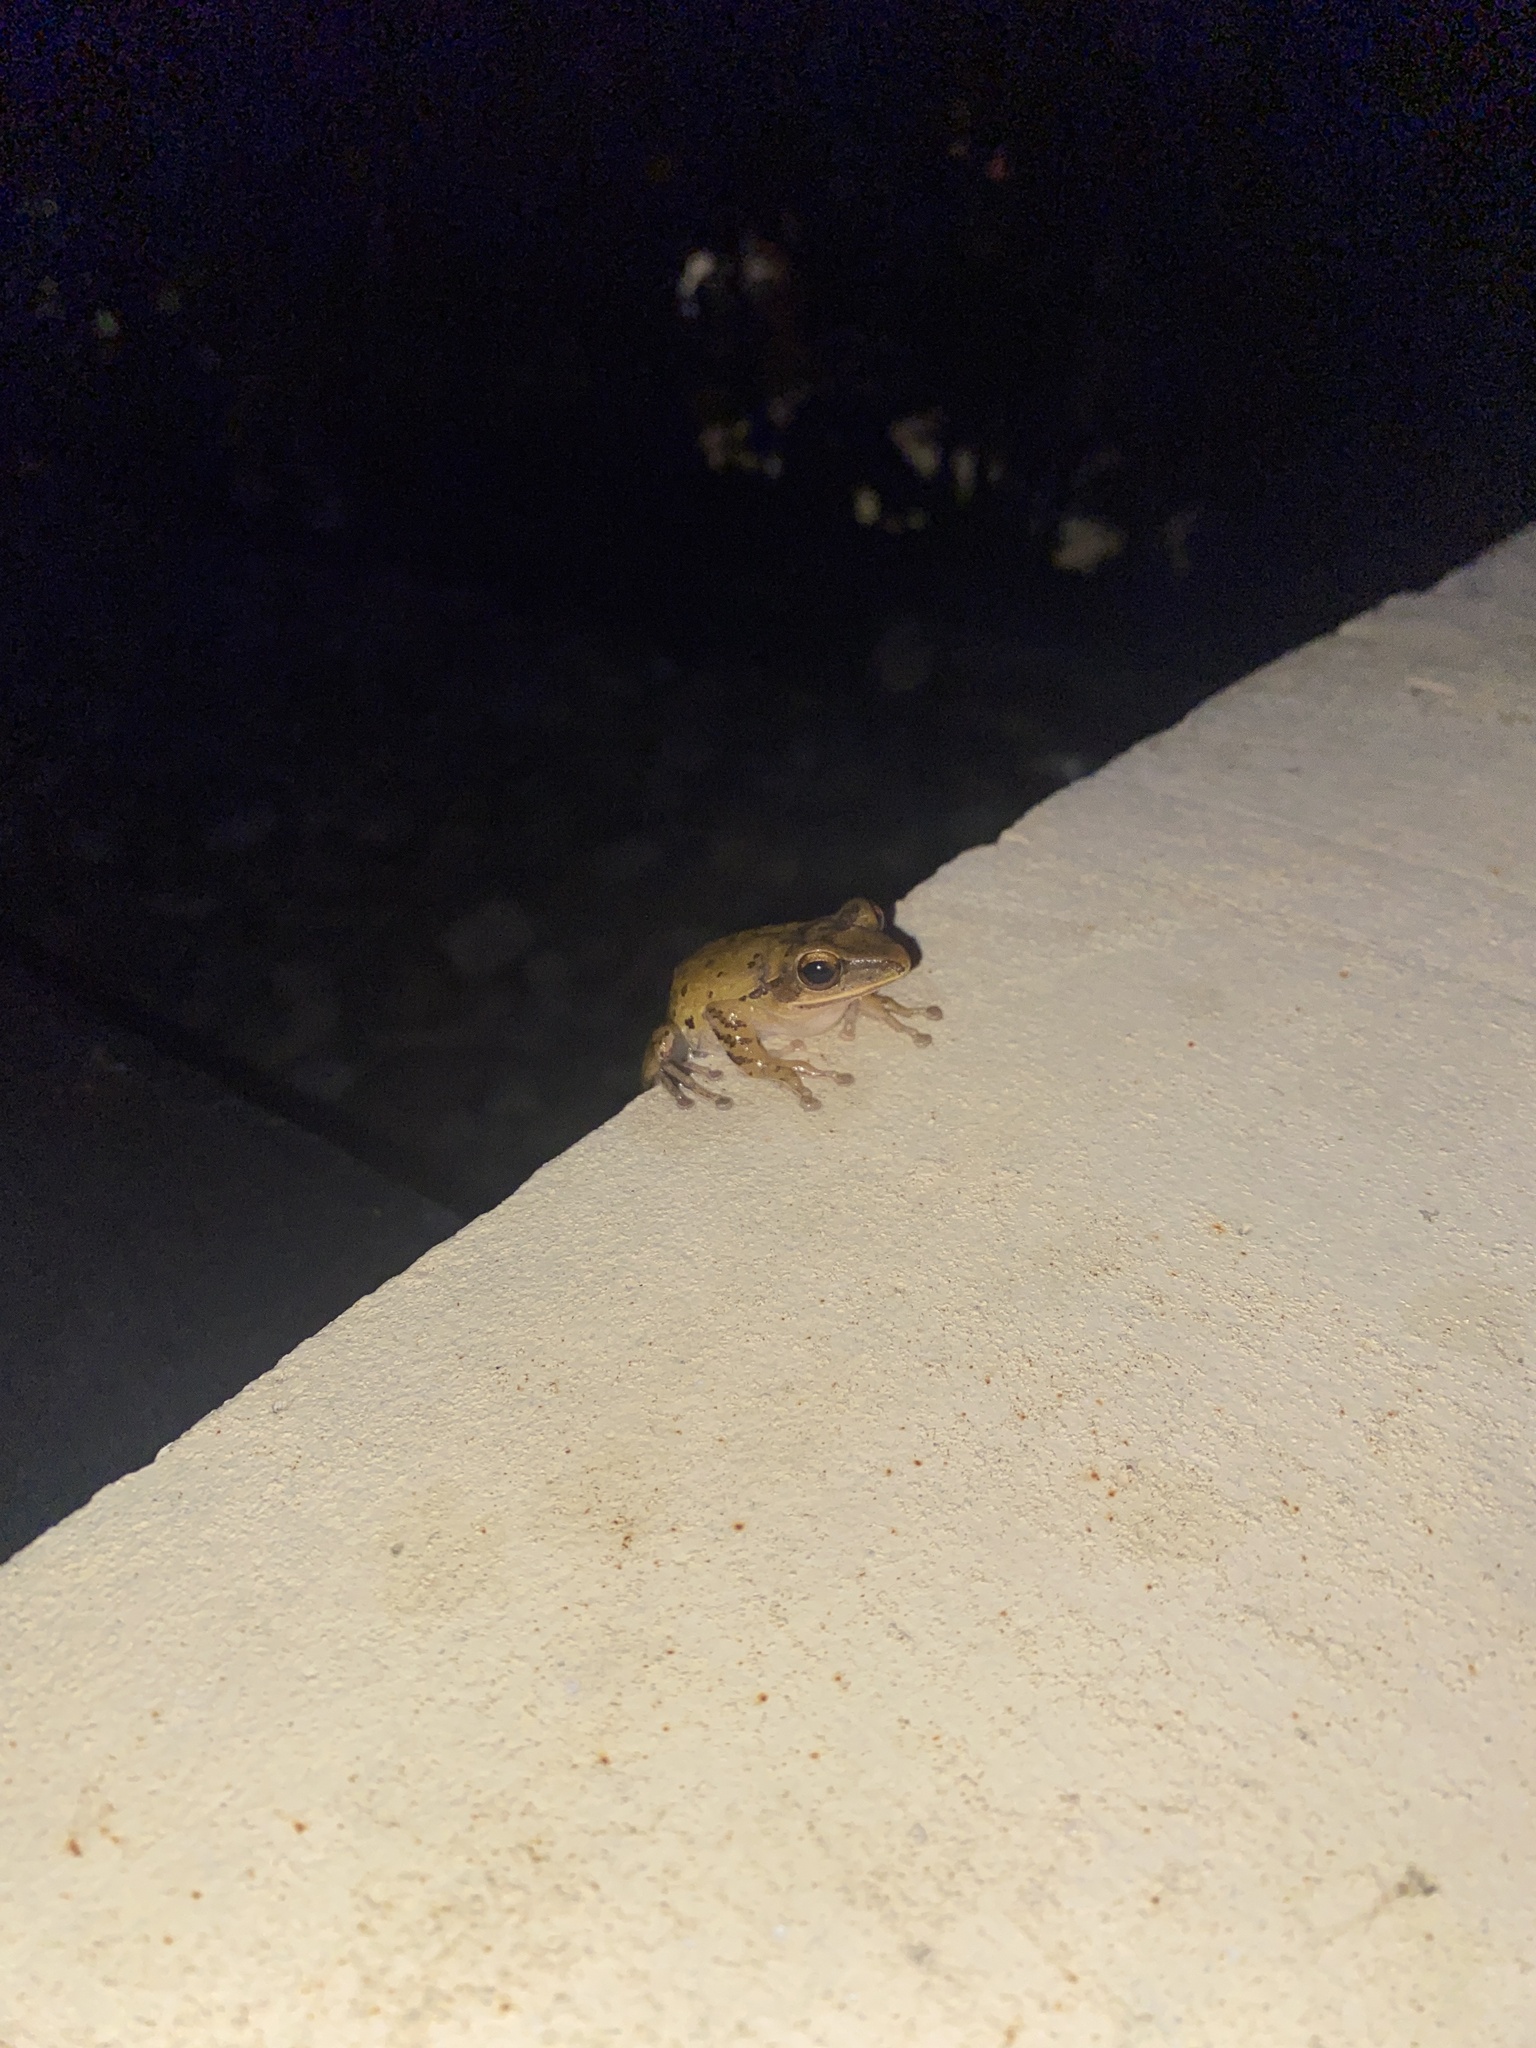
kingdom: Animalia
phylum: Chordata
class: Amphibia
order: Anura
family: Rhacophoridae
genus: Polypedates
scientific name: Polypedates leucomystax
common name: Common tree frog/four-lined tree frog
